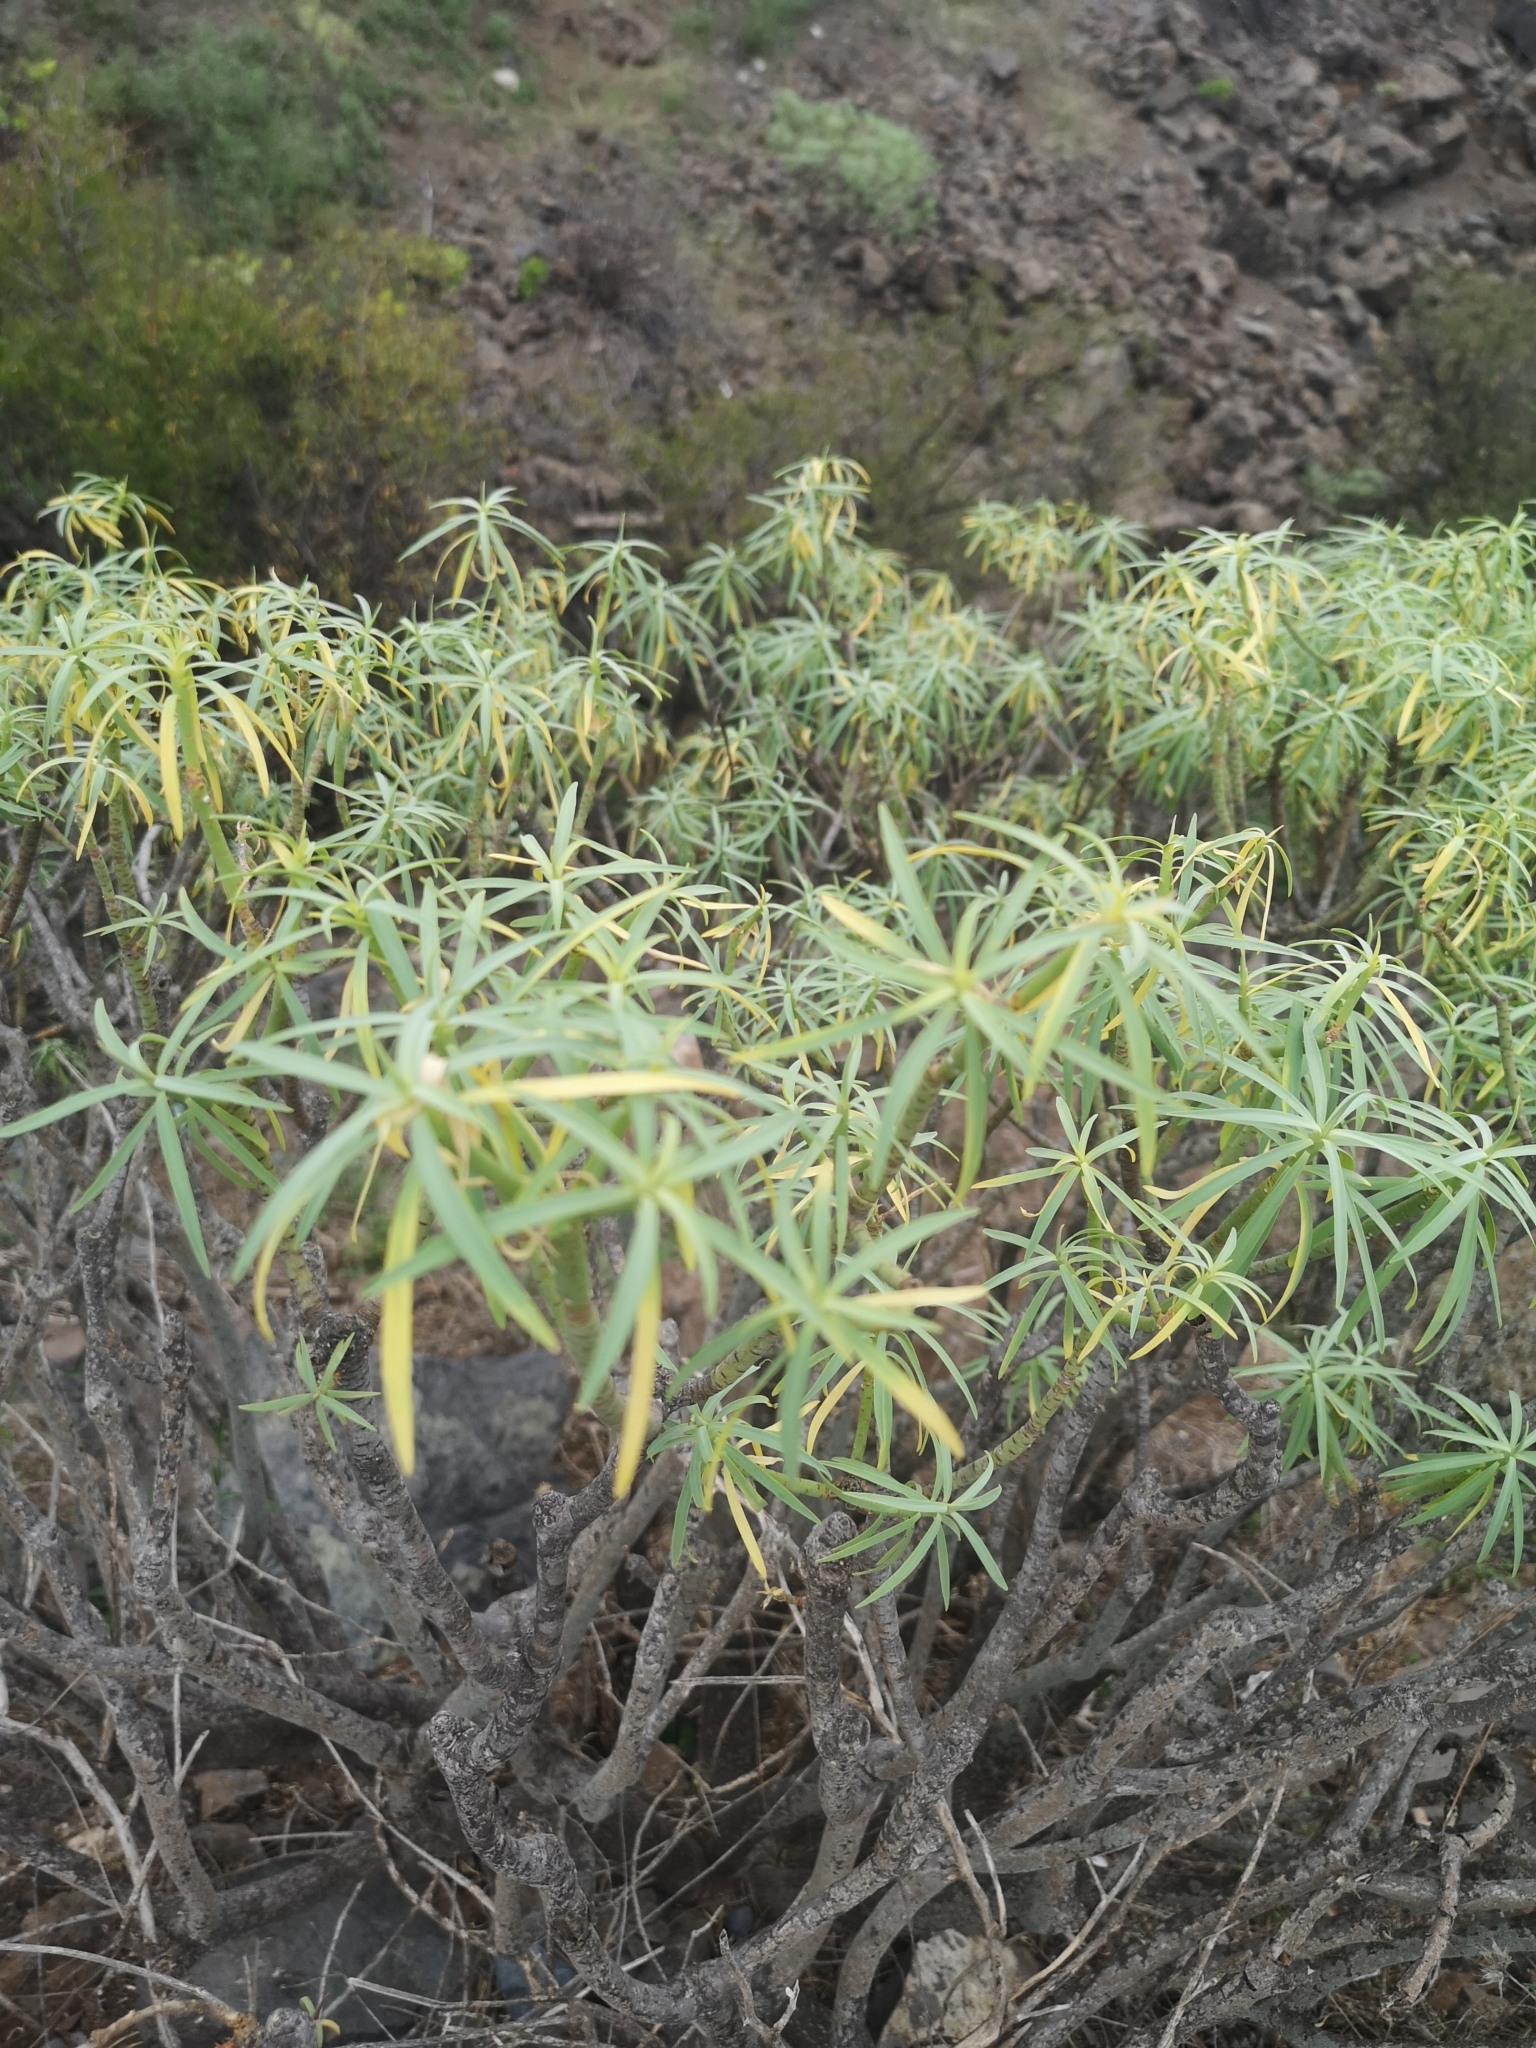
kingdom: Plantae
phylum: Tracheophyta
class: Magnoliopsida
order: Malpighiales
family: Euphorbiaceae
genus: Euphorbia
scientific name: Euphorbia lamarckii
